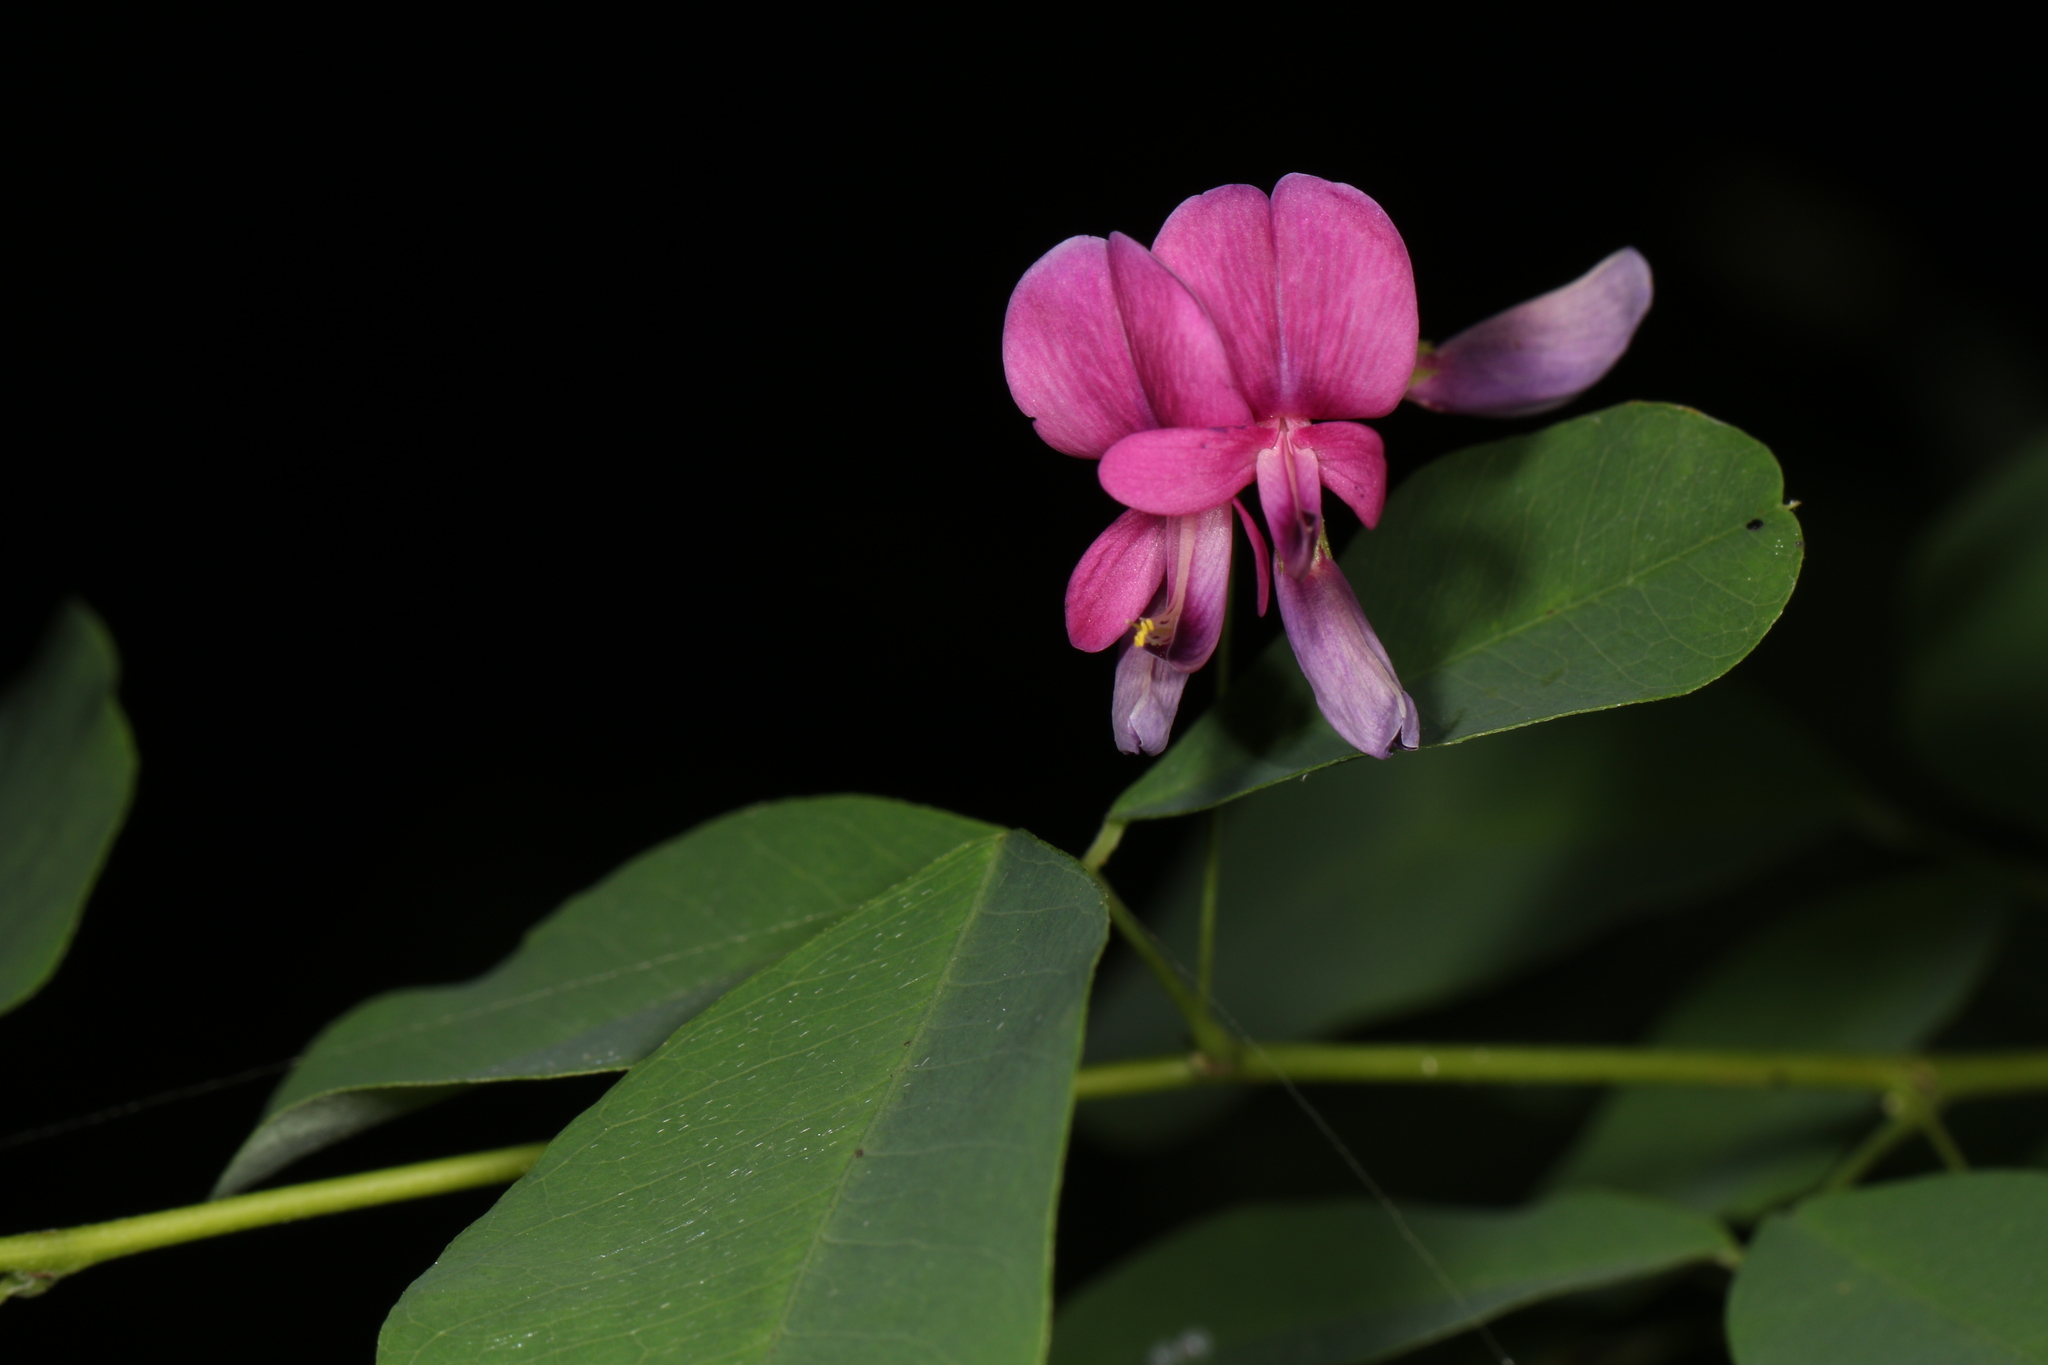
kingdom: Plantae
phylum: Tracheophyta
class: Magnoliopsida
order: Fabales
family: Fabaceae
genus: Lespedeza
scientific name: Lespedeza bicolor
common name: Shrub lespedeza
